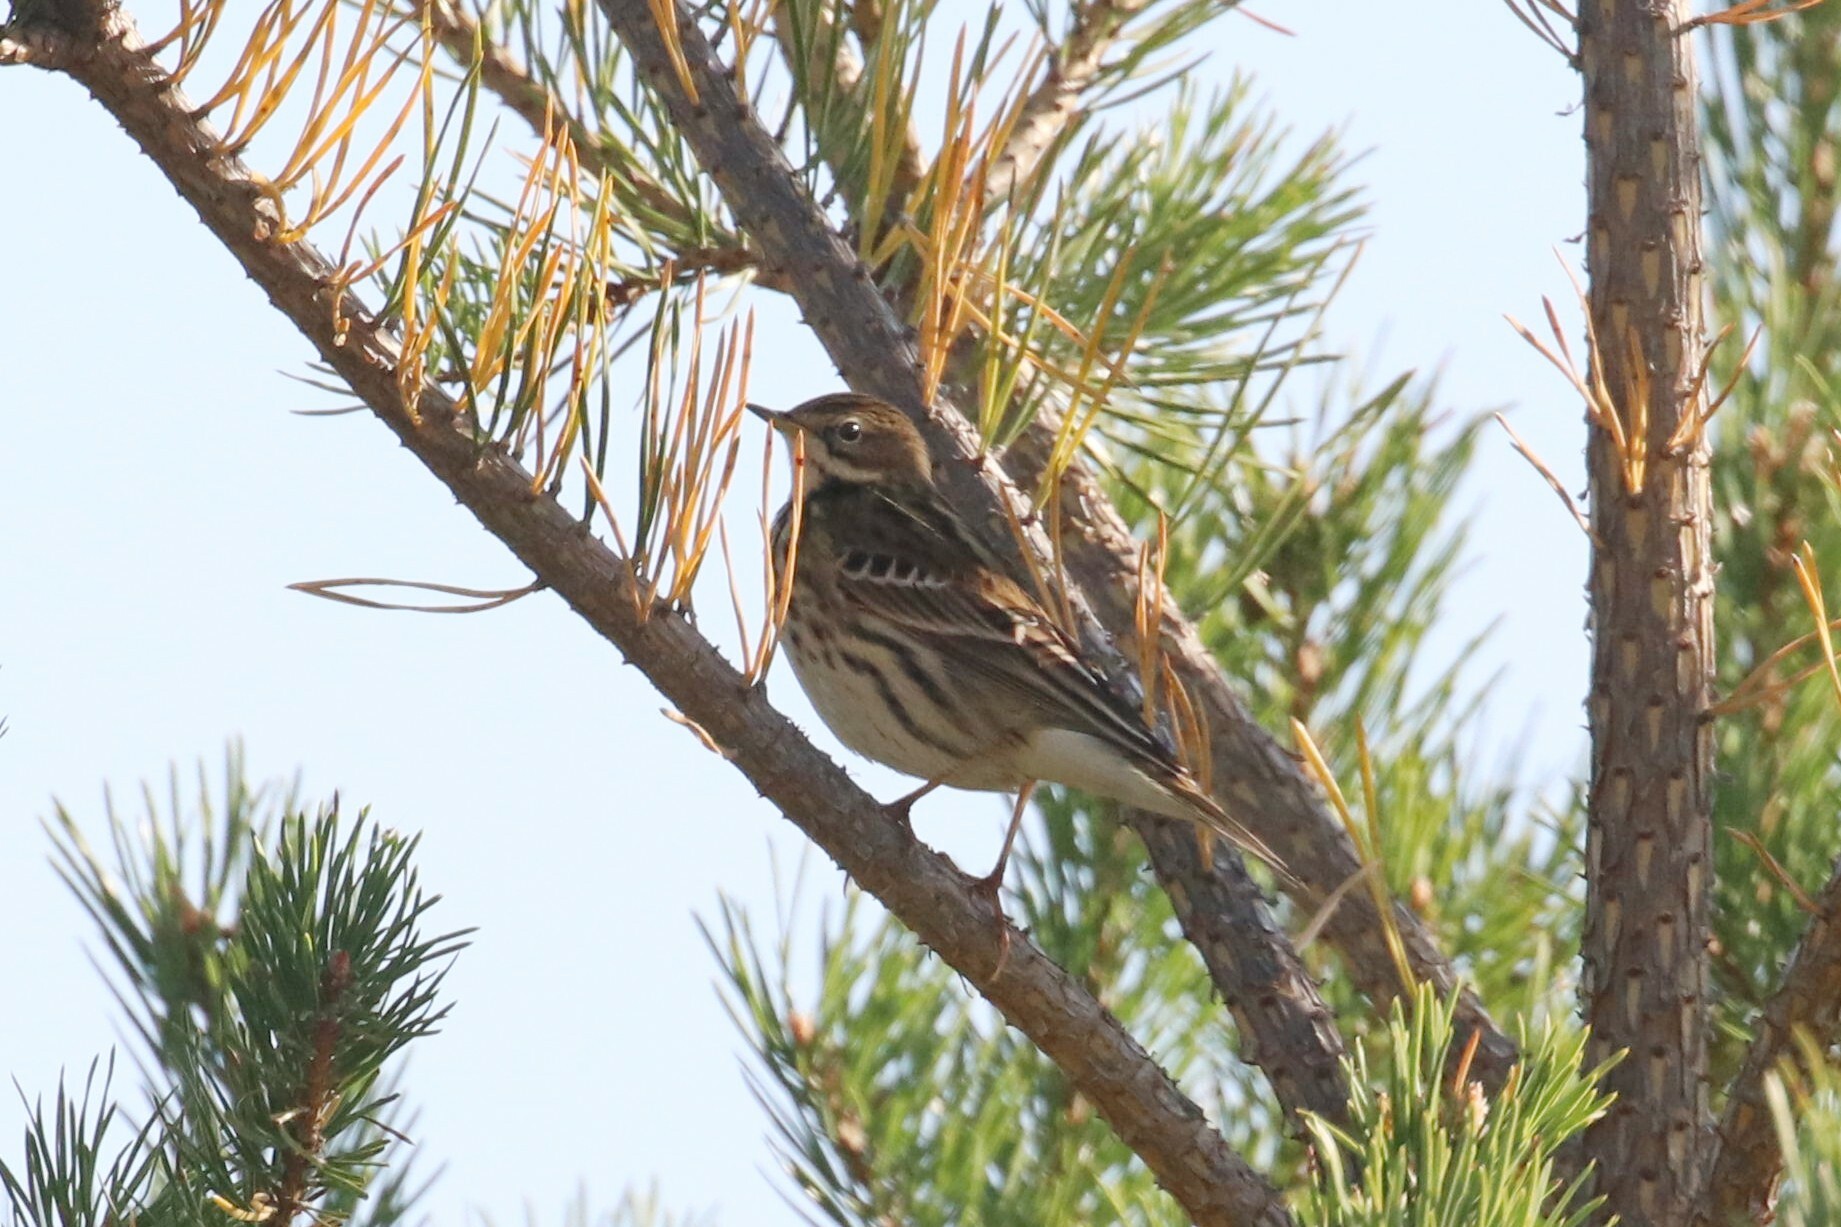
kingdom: Animalia
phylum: Chordata
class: Aves
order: Passeriformes
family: Motacillidae
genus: Anthus
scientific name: Anthus cervinus
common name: Red-throated pipit
